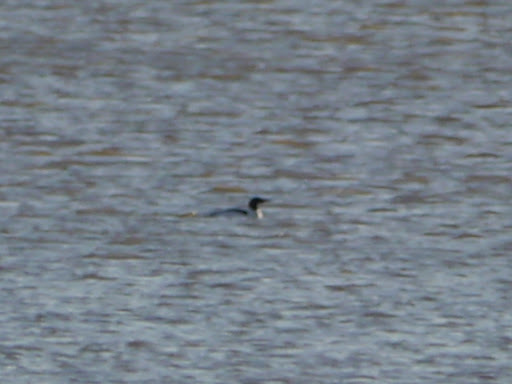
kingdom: Animalia
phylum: Chordata
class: Aves
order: Anseriformes
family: Anatidae
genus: Mergus
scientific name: Mergus merganser
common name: Common merganser
